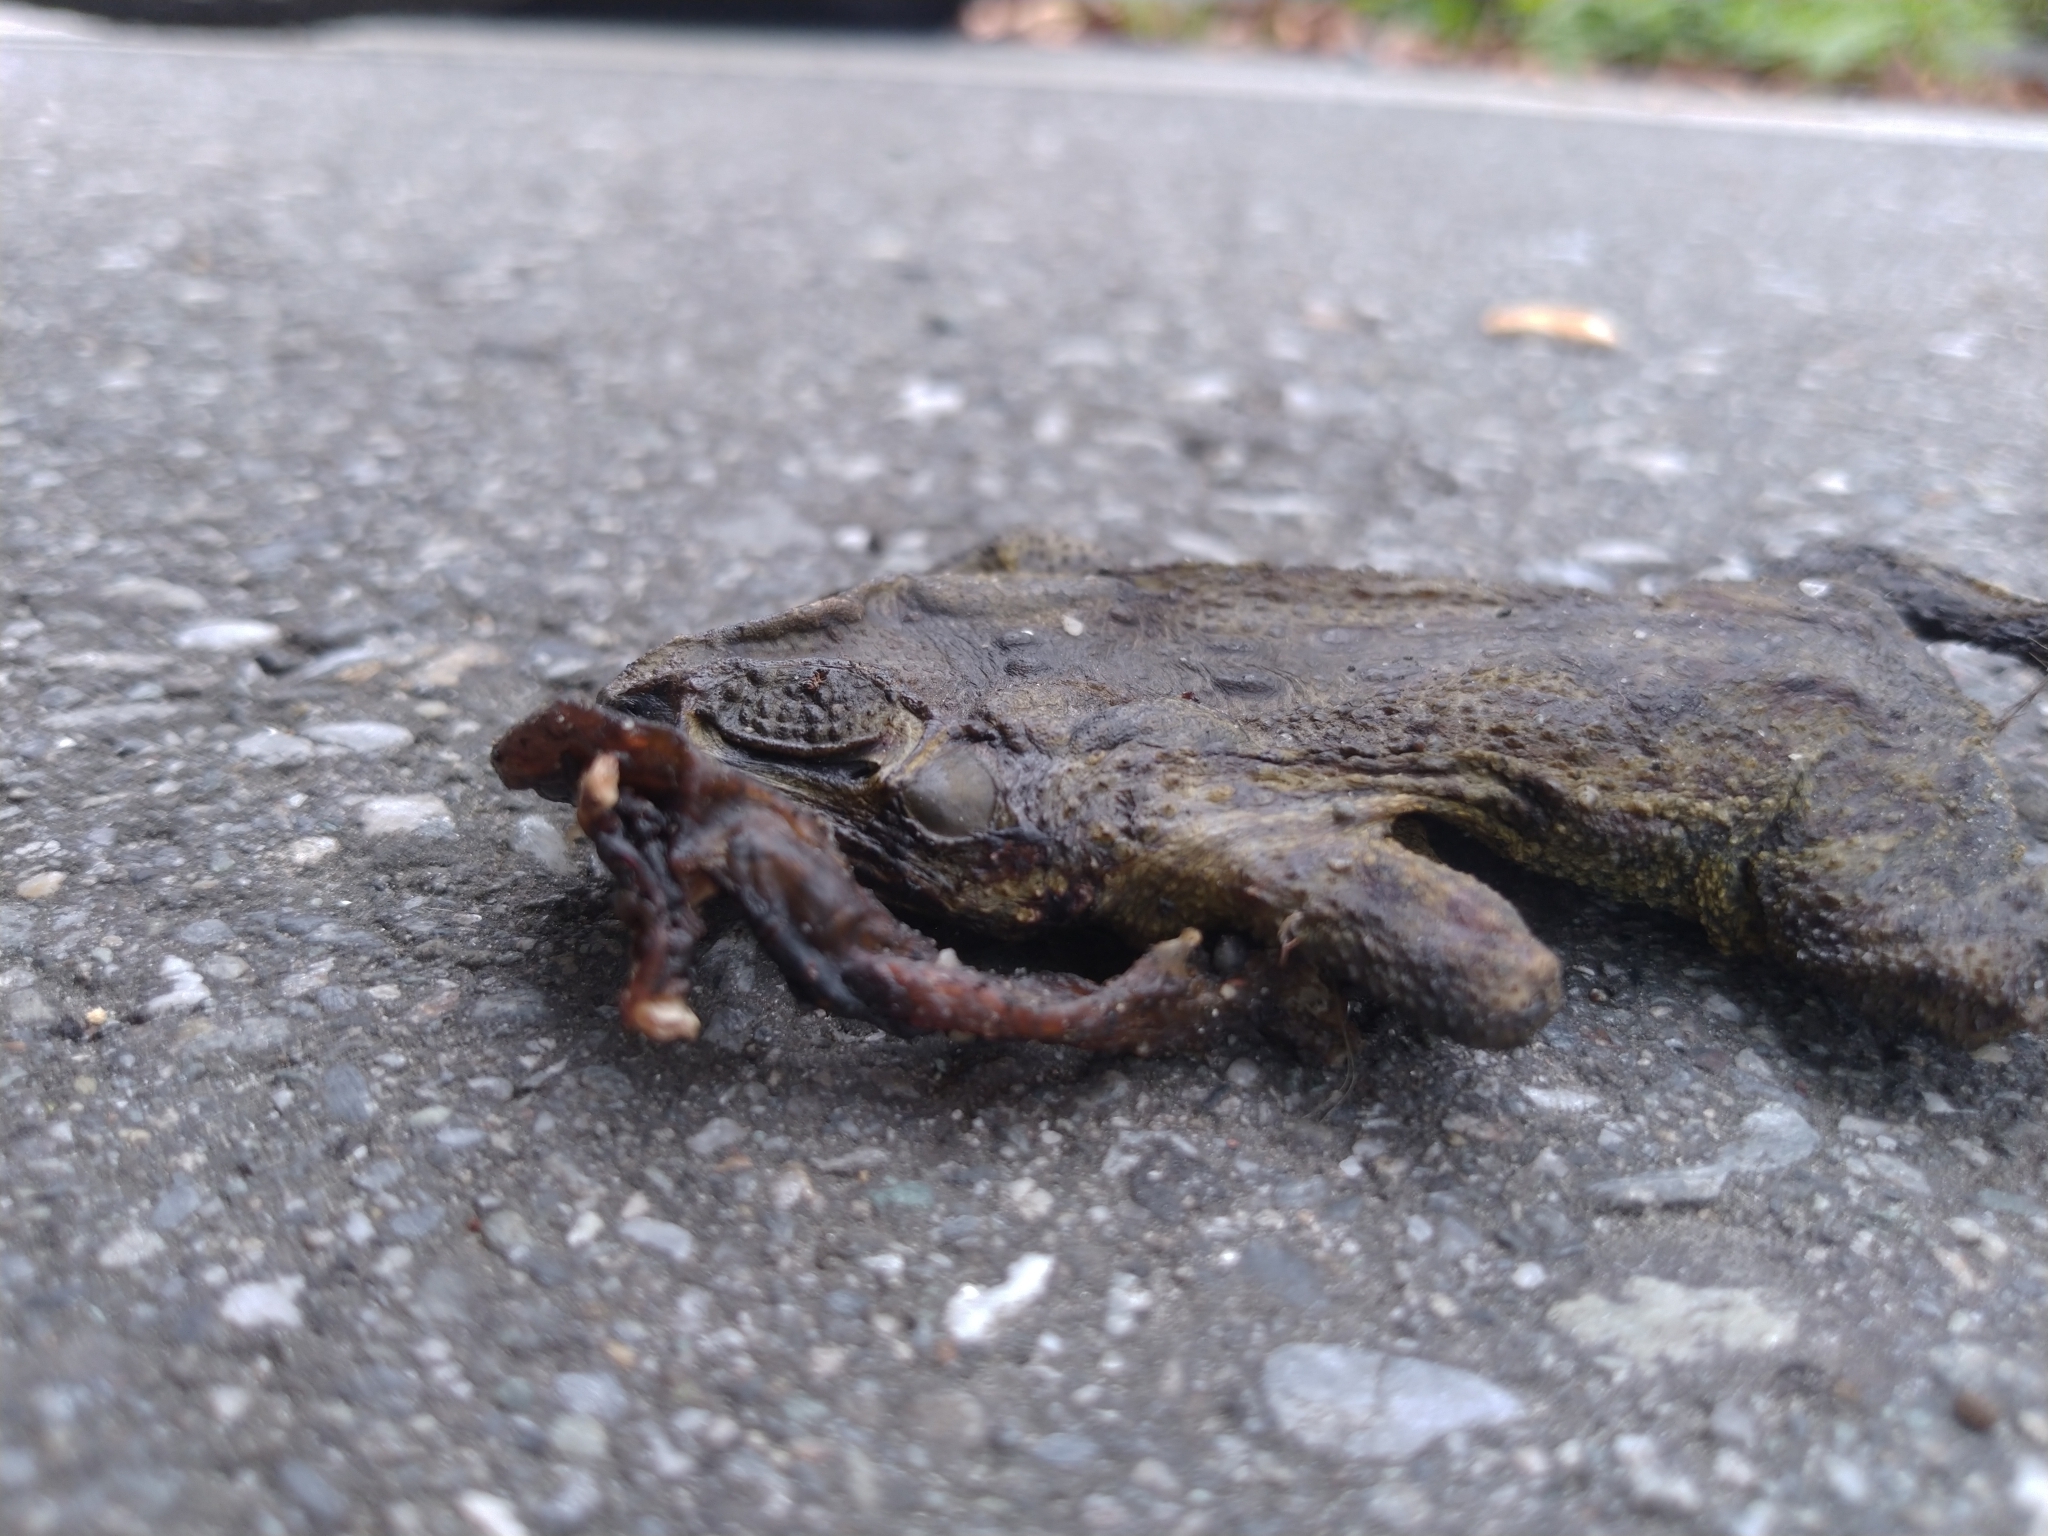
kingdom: Animalia
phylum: Chordata
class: Amphibia
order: Anura
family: Bufonidae
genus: Duttaphrynus
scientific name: Duttaphrynus melanostictus
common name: Common sunda toad
